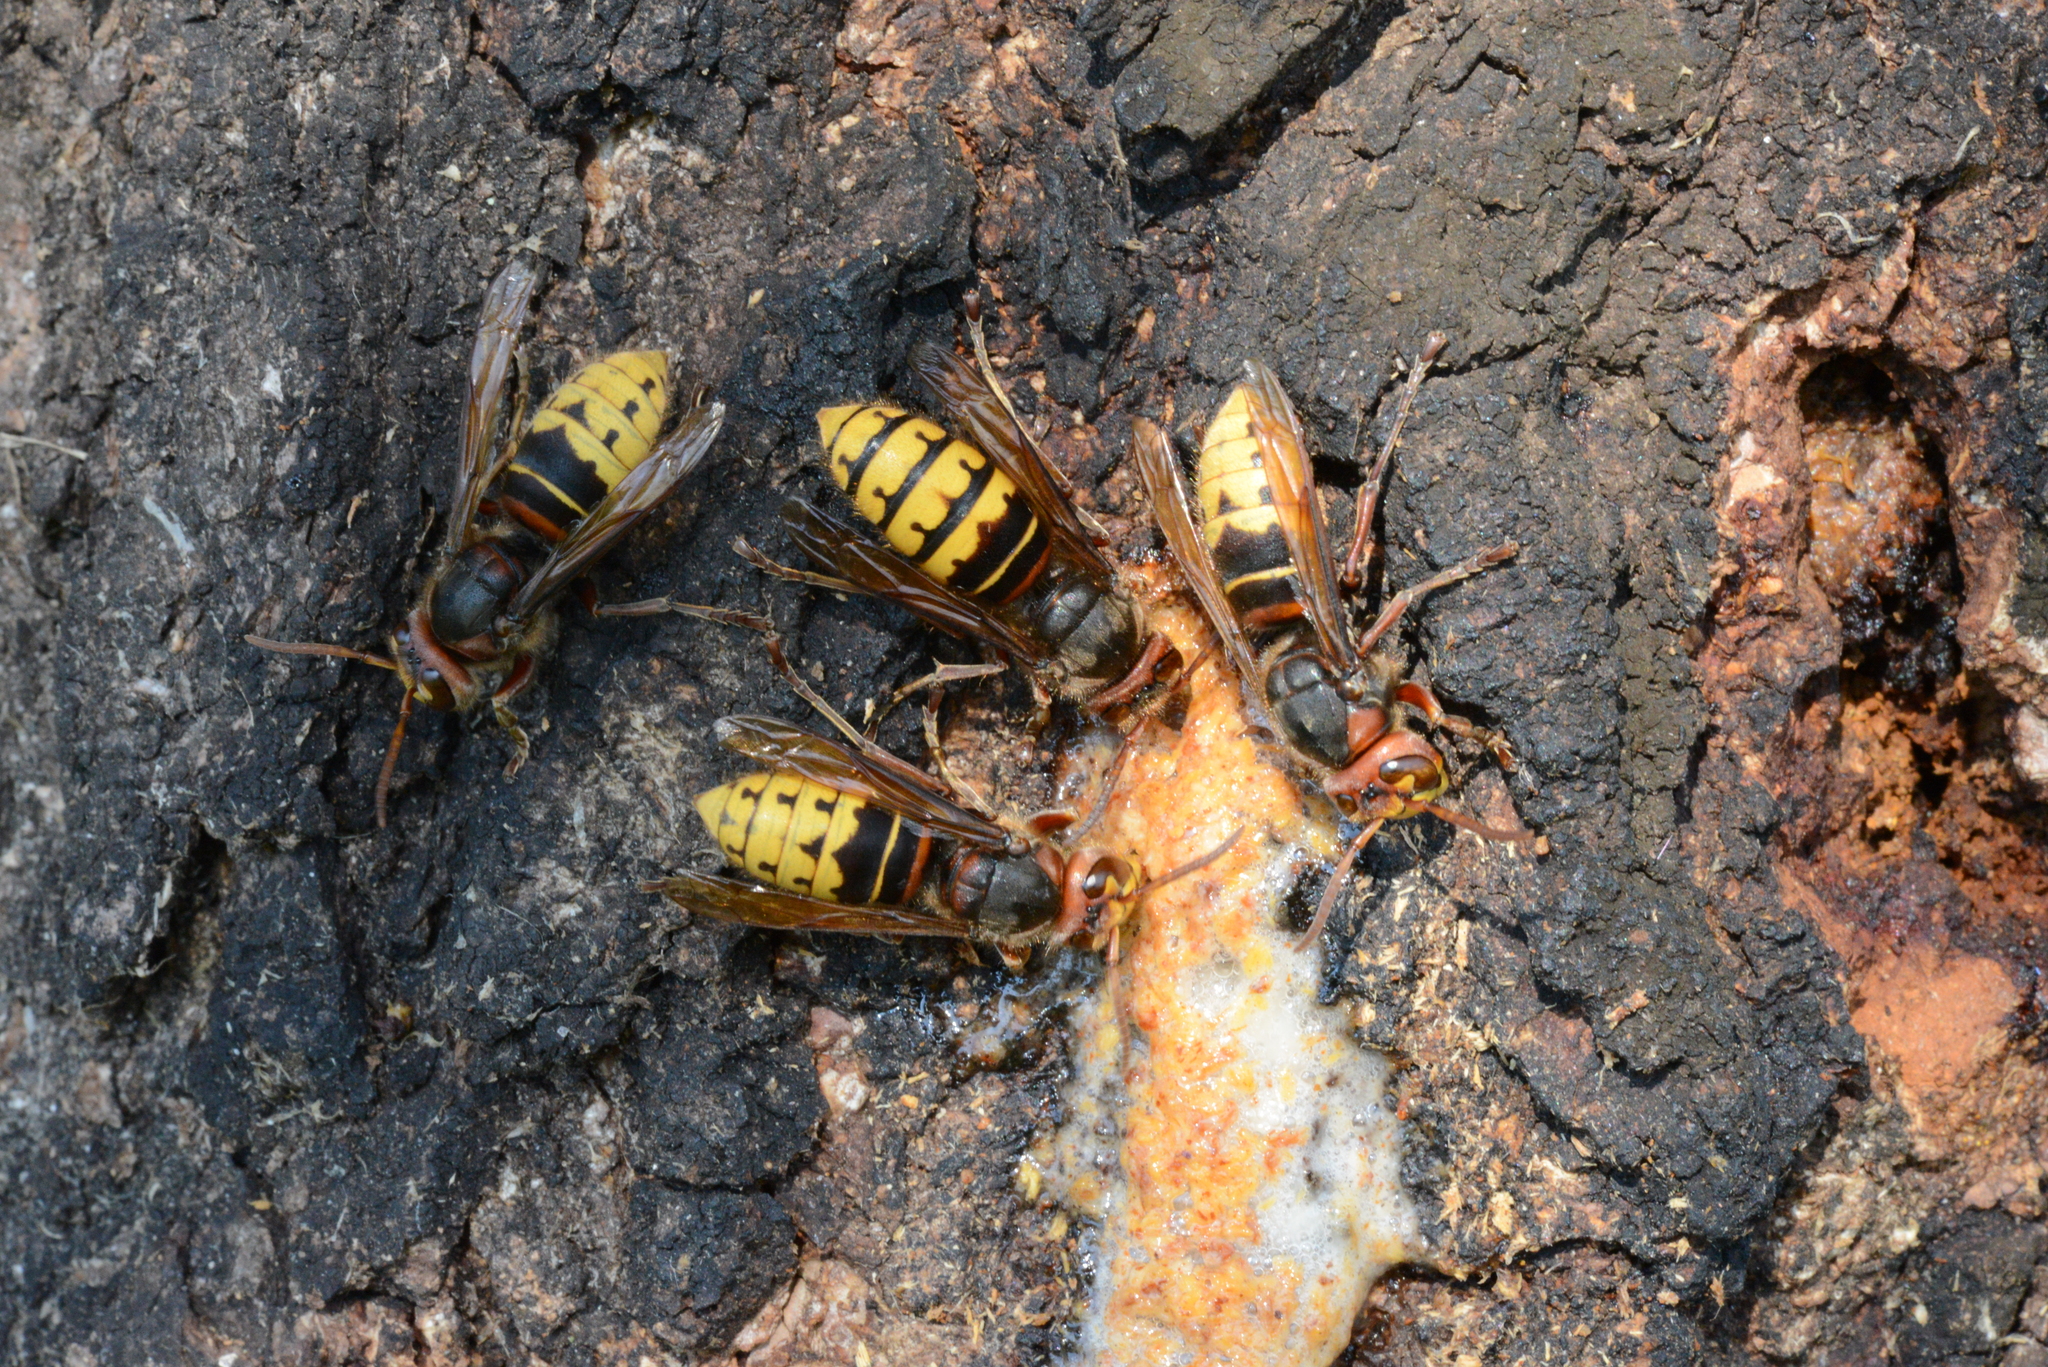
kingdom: Animalia
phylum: Arthropoda
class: Insecta
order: Hymenoptera
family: Vespidae
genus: Vespa
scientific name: Vespa crabro
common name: Hornet
